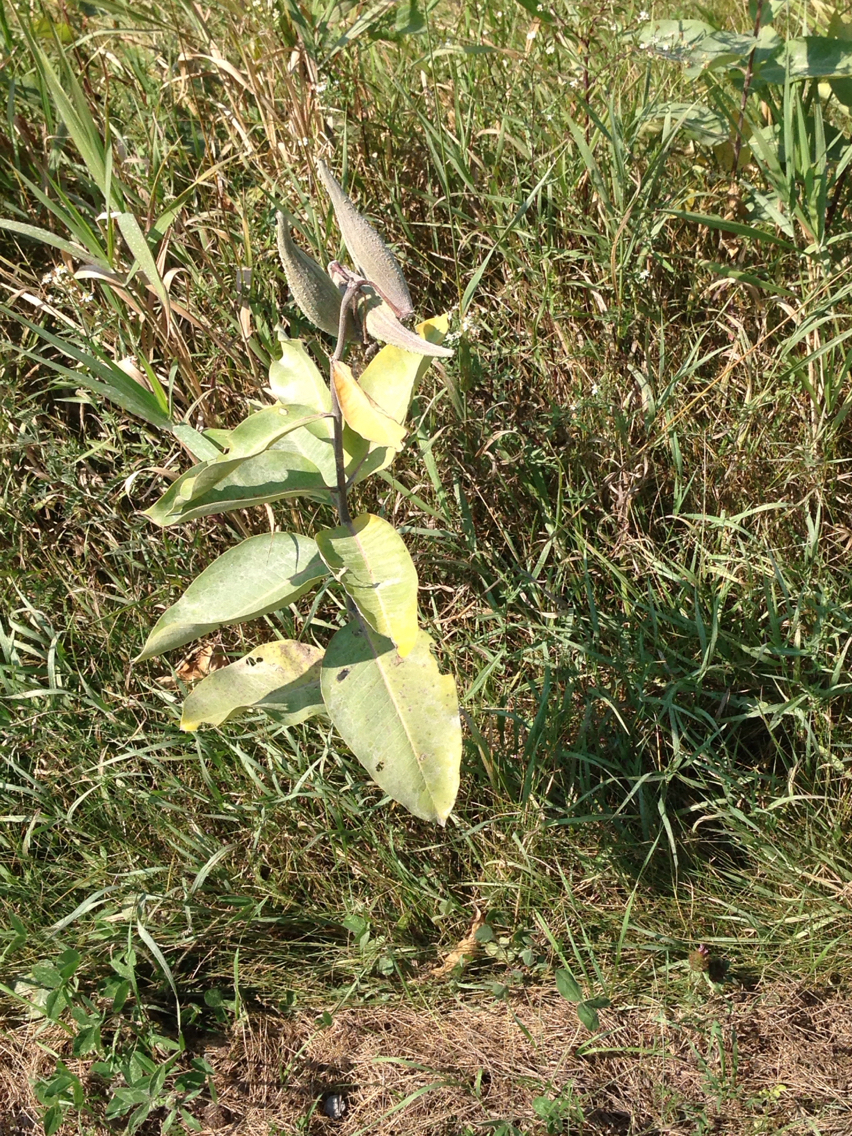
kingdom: Plantae
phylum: Tracheophyta
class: Magnoliopsida
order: Gentianales
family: Apocynaceae
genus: Asclepias
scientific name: Asclepias syriaca
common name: Common milkweed
